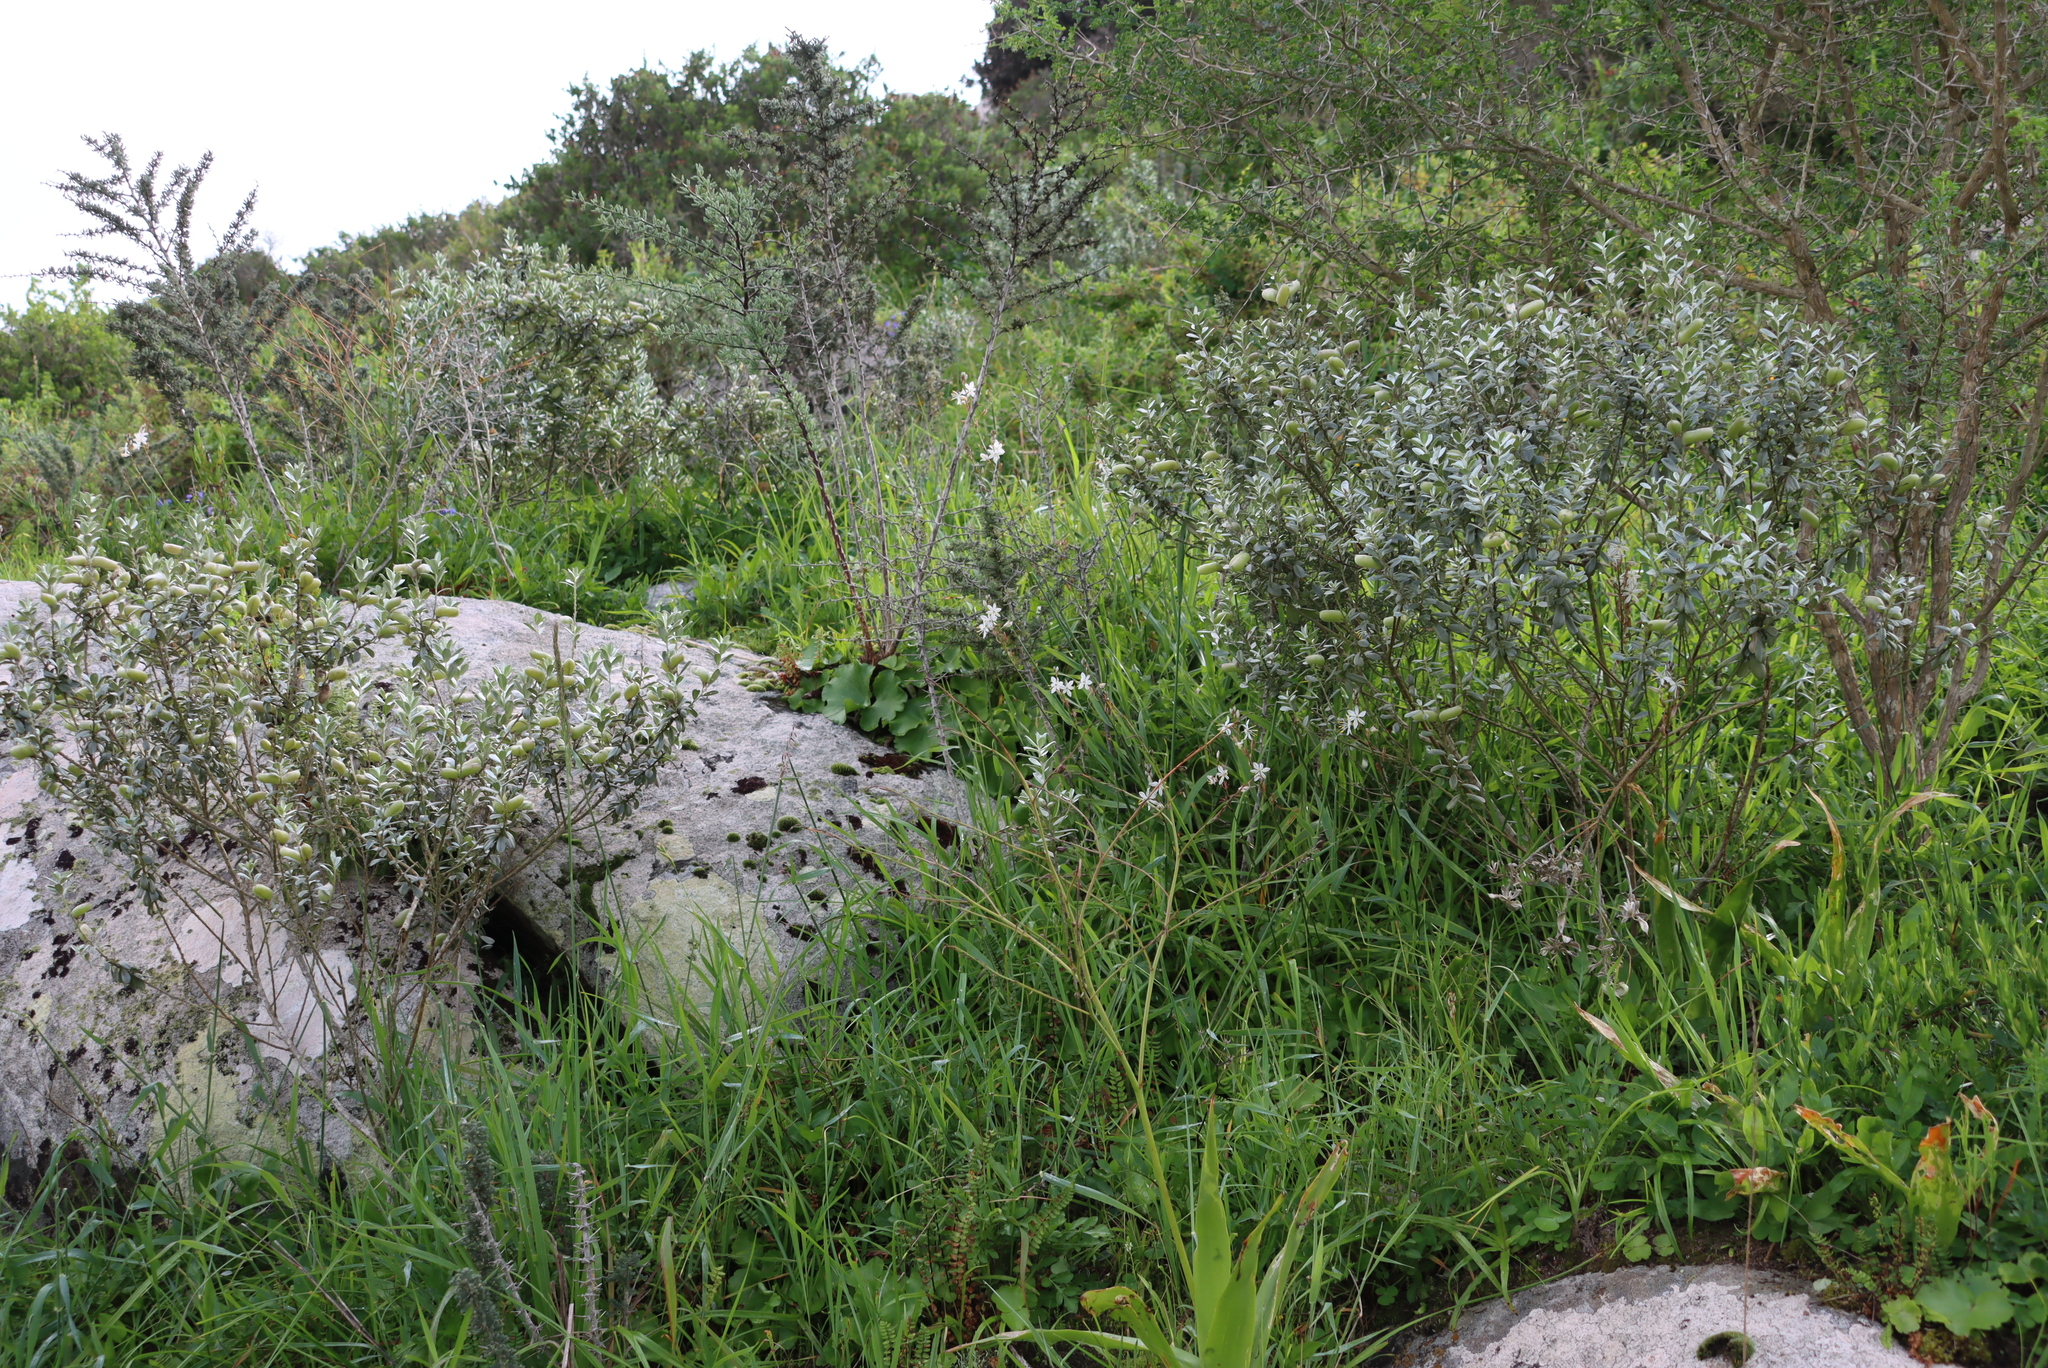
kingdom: Plantae
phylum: Tracheophyta
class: Liliopsida
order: Asparagales
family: Asparagaceae
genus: Chlorophytum
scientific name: Chlorophytum graminifolium
